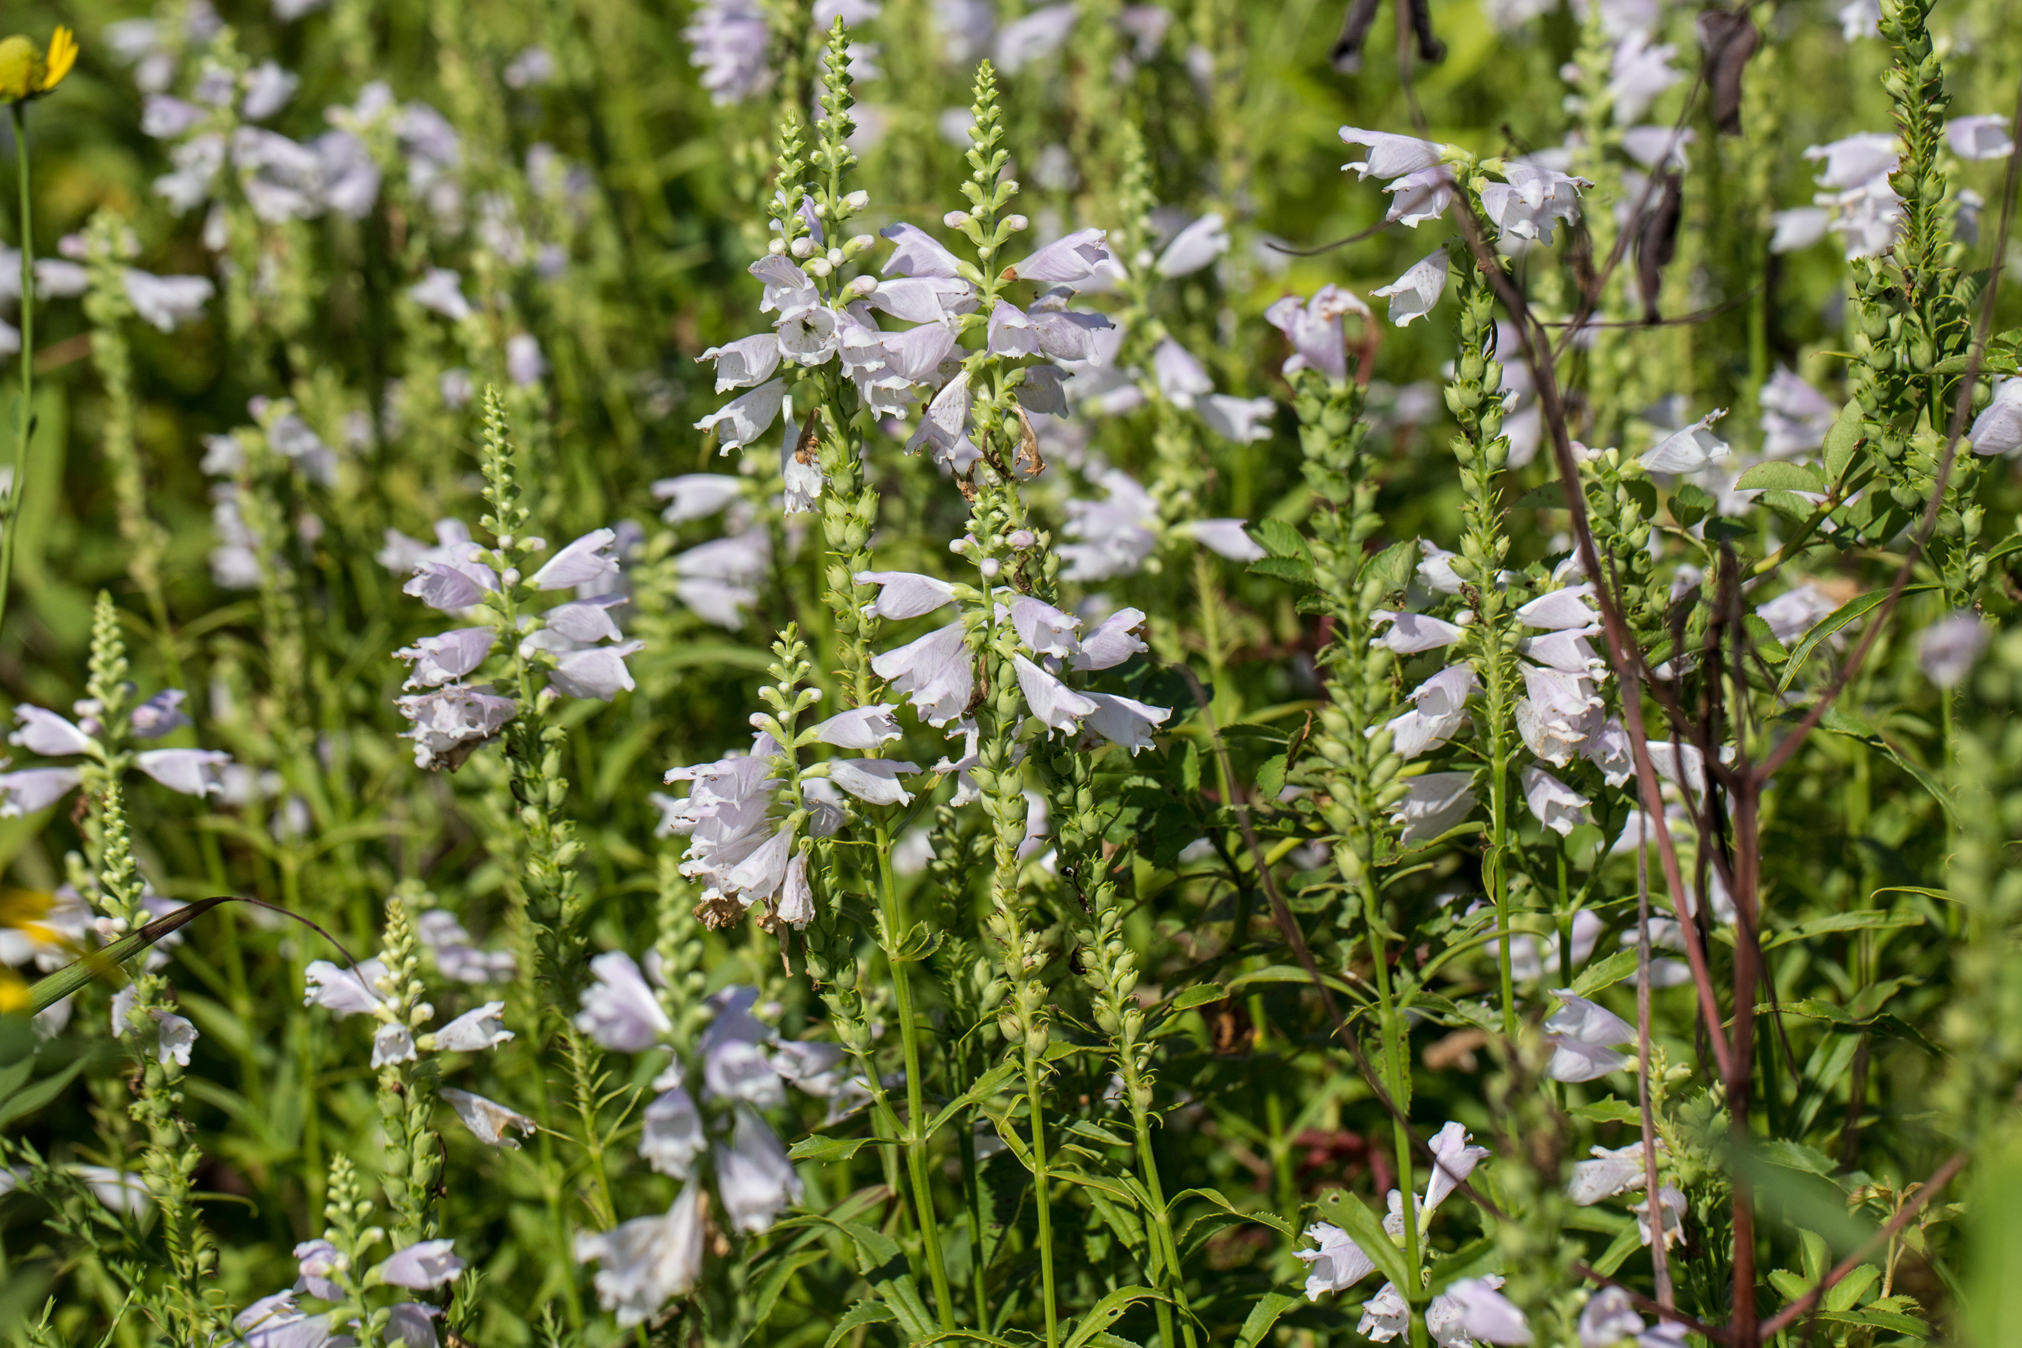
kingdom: Plantae
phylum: Tracheophyta
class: Magnoliopsida
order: Lamiales
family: Lamiaceae
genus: Physostegia
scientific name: Physostegia virginiana
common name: Obedient-plant
